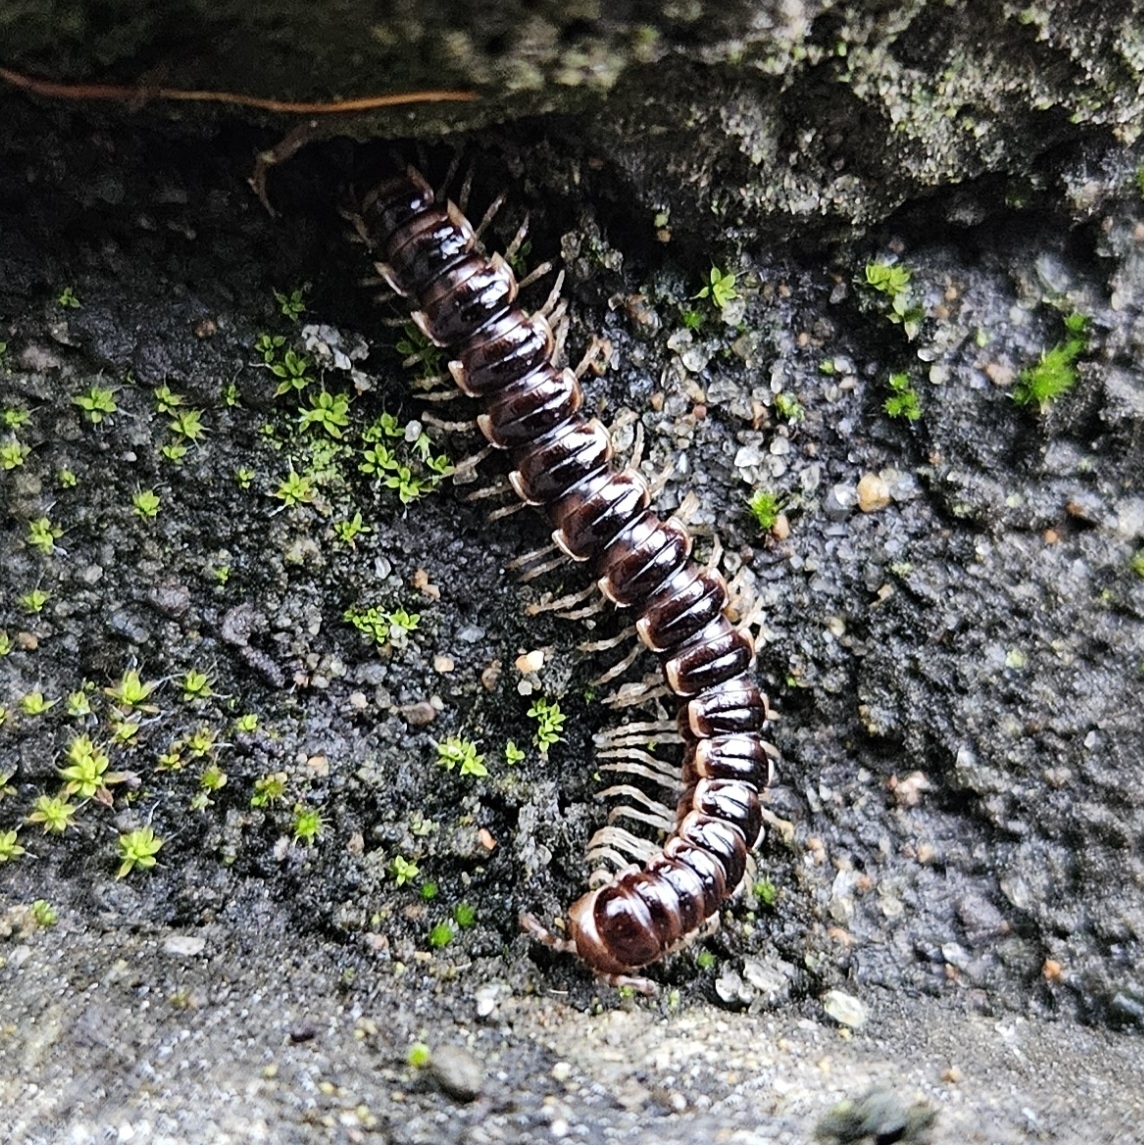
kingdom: Animalia
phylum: Arthropoda
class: Diplopoda
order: Polydesmida
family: Paradoxosomatidae
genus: Oxidus
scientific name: Oxidus gracilis
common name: Greenhouse millipede
